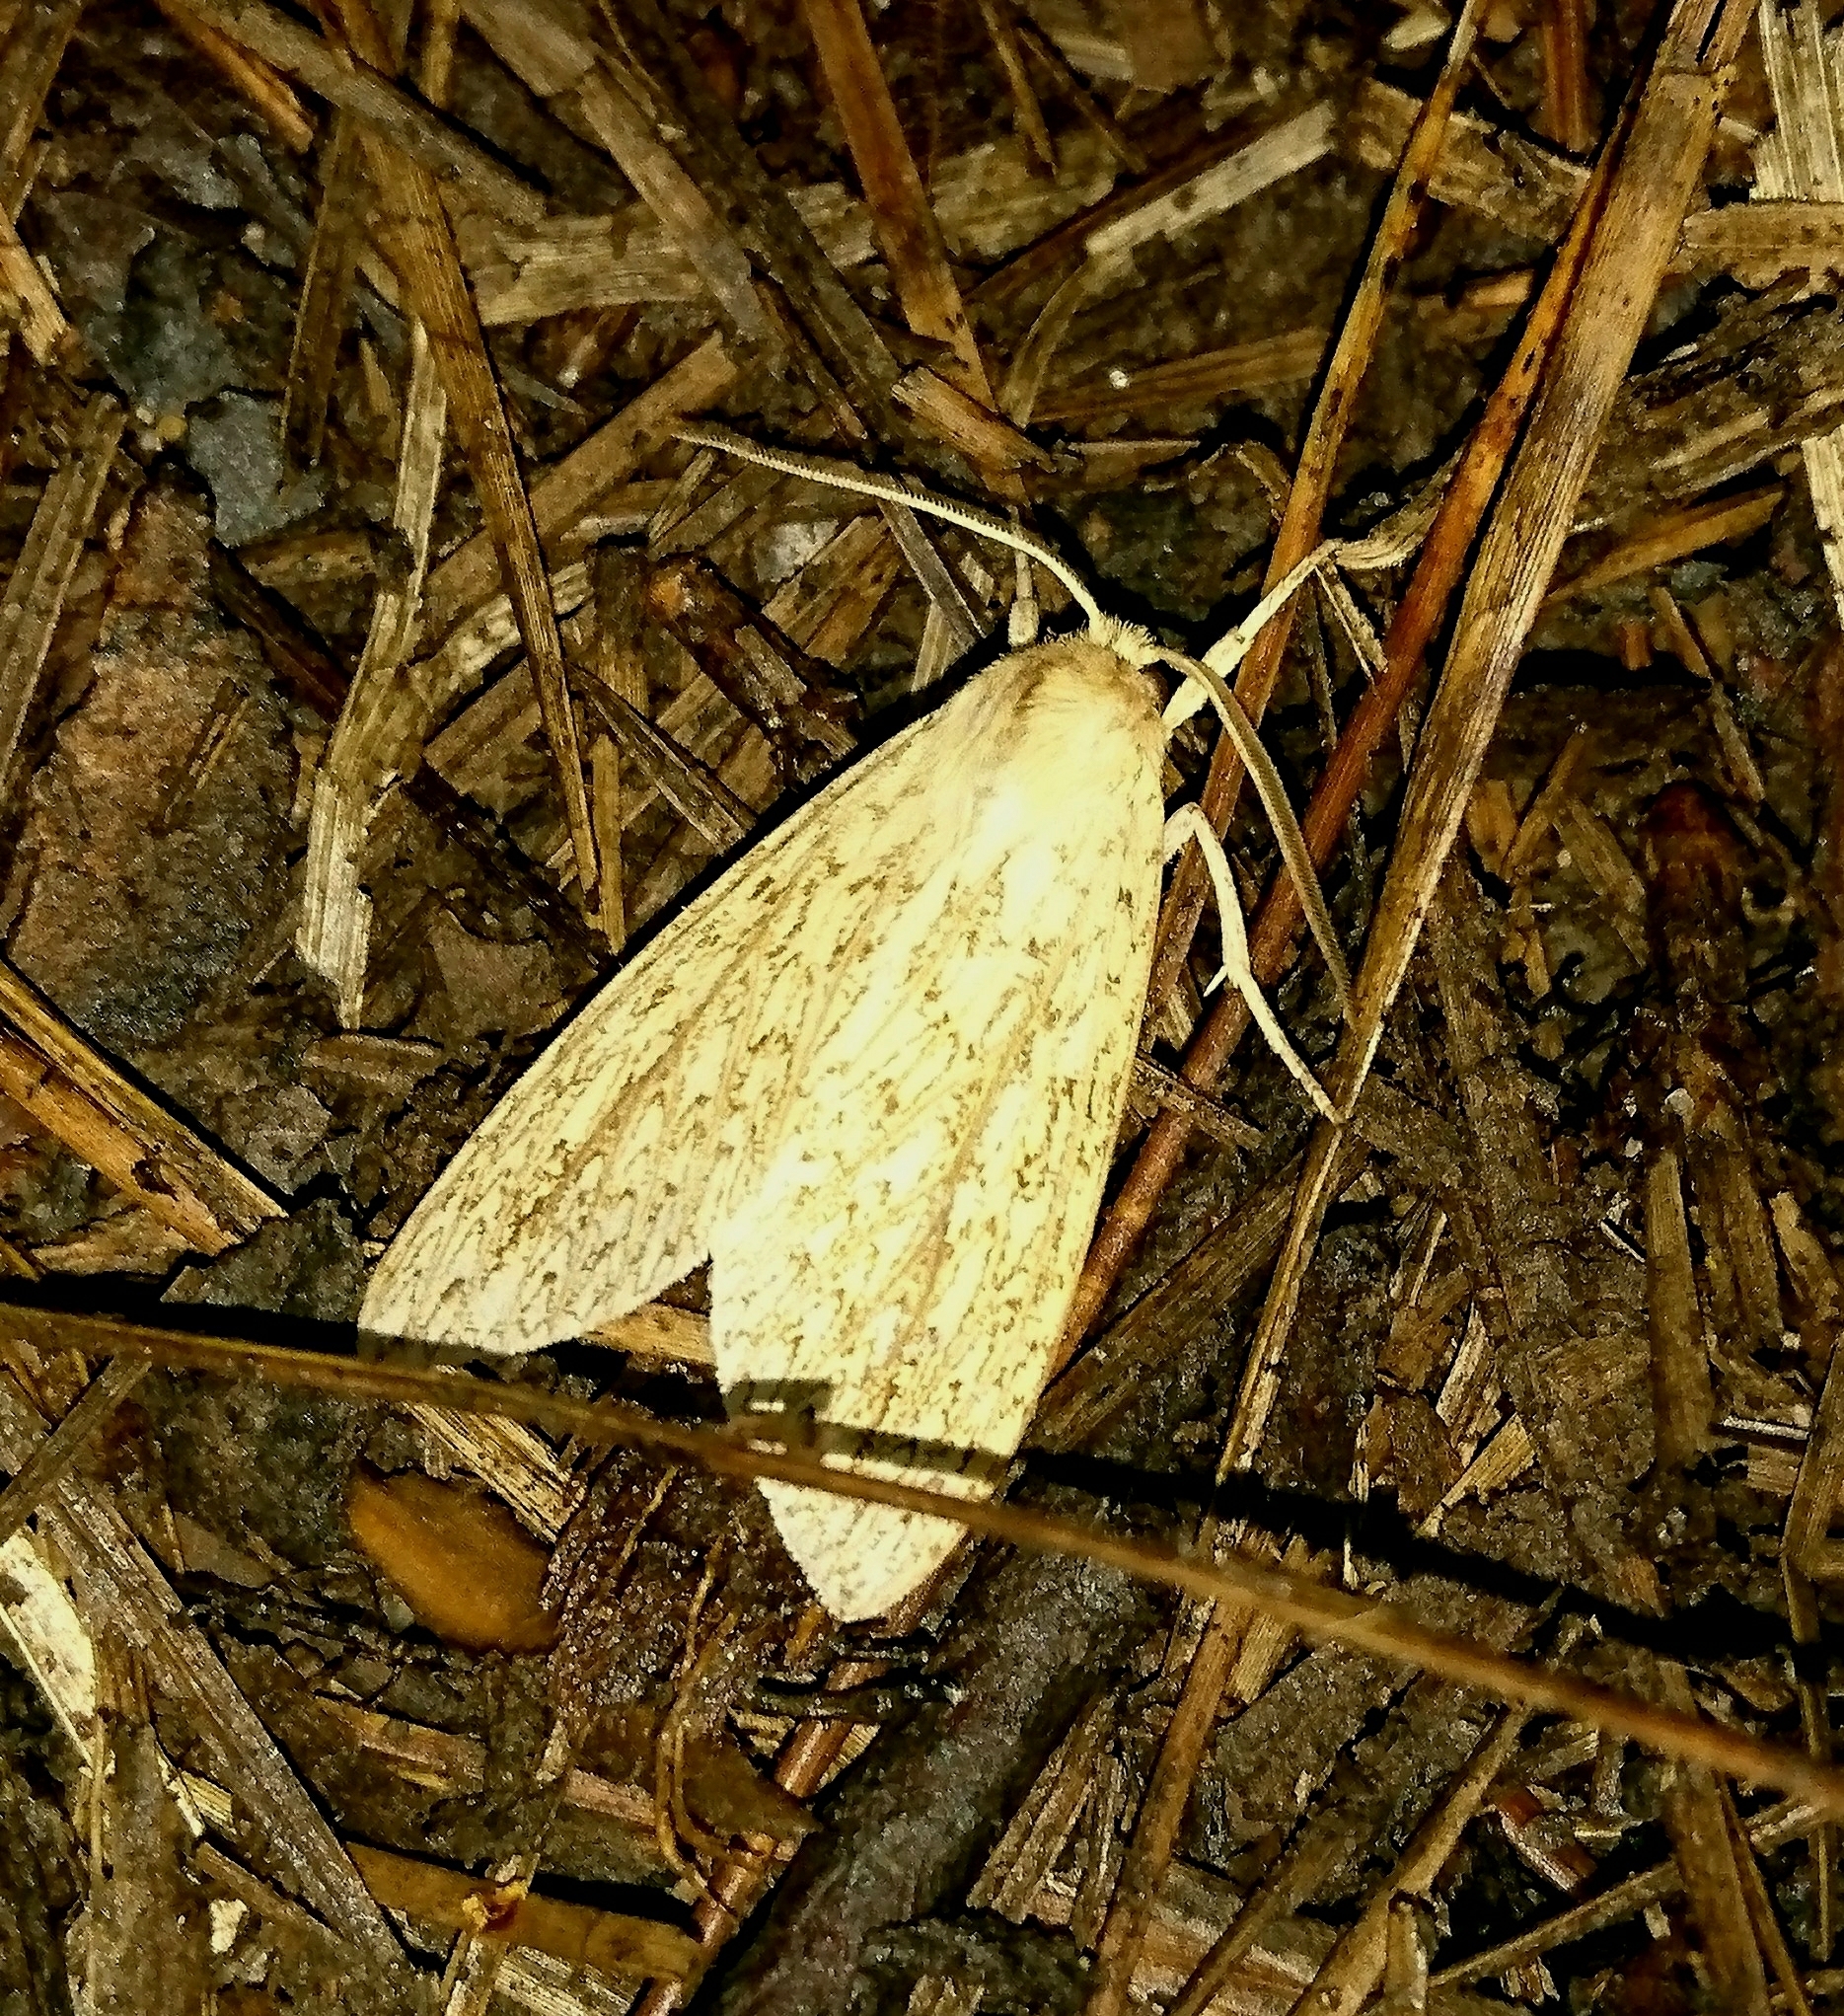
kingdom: Animalia
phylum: Arthropoda
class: Insecta
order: Lepidoptera
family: Erebidae
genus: Leucanopsis
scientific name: Leucanopsis longa
